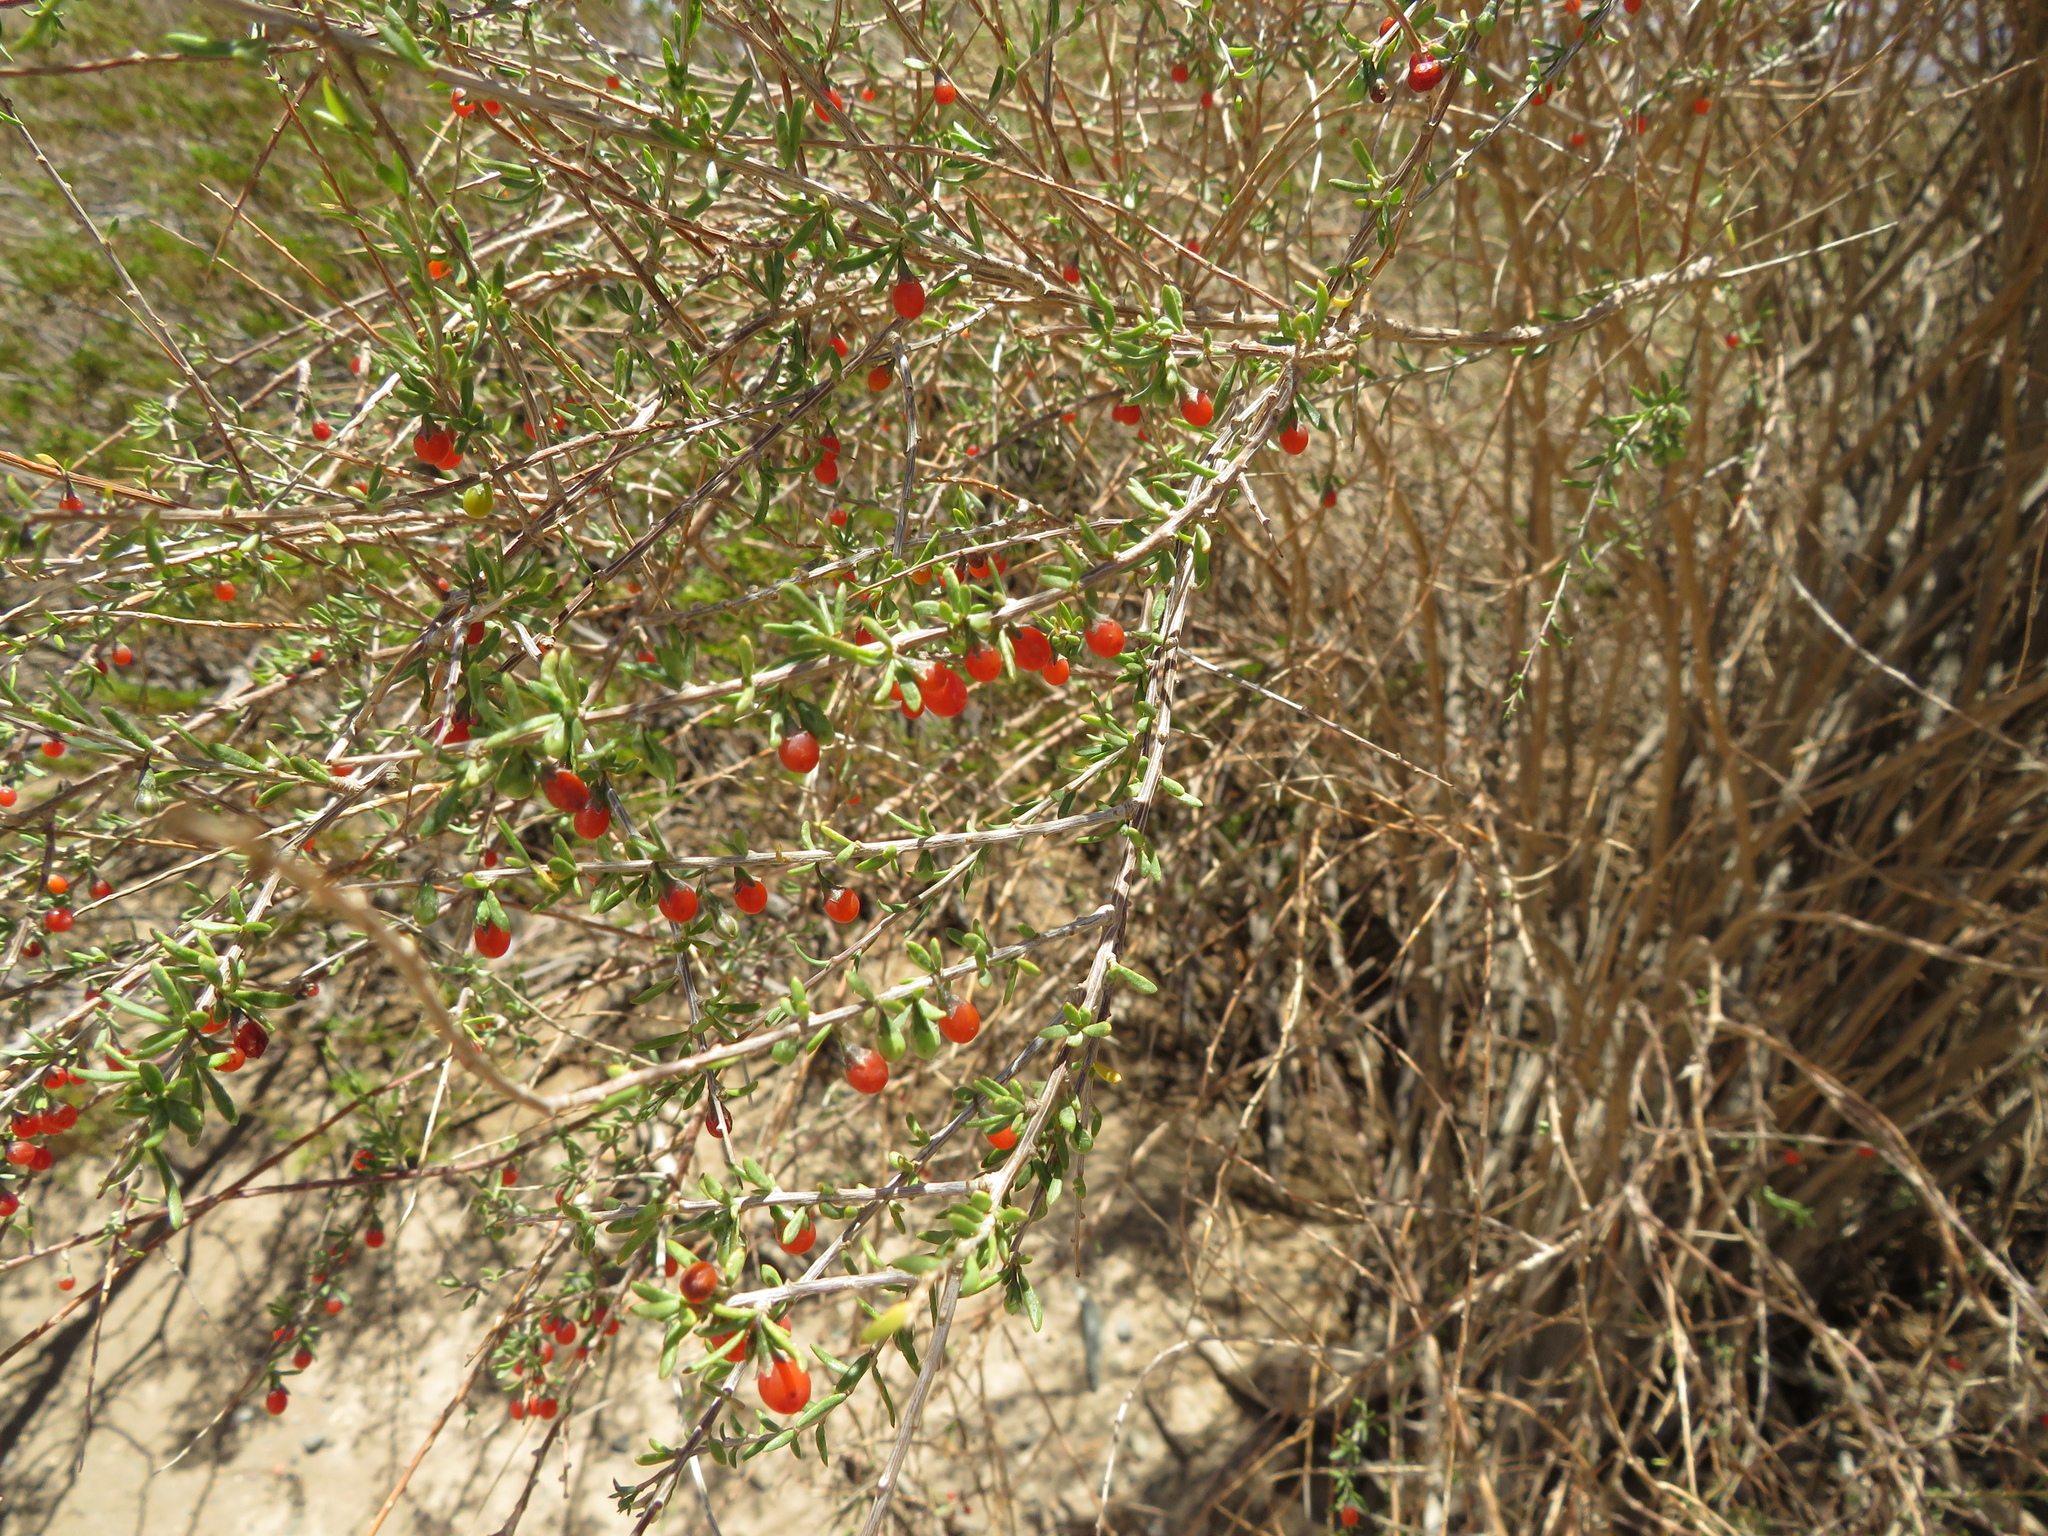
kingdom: Plantae
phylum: Tracheophyta
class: Magnoliopsida
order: Solanales
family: Solanaceae
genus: Lycium
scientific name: Lycium chilense
